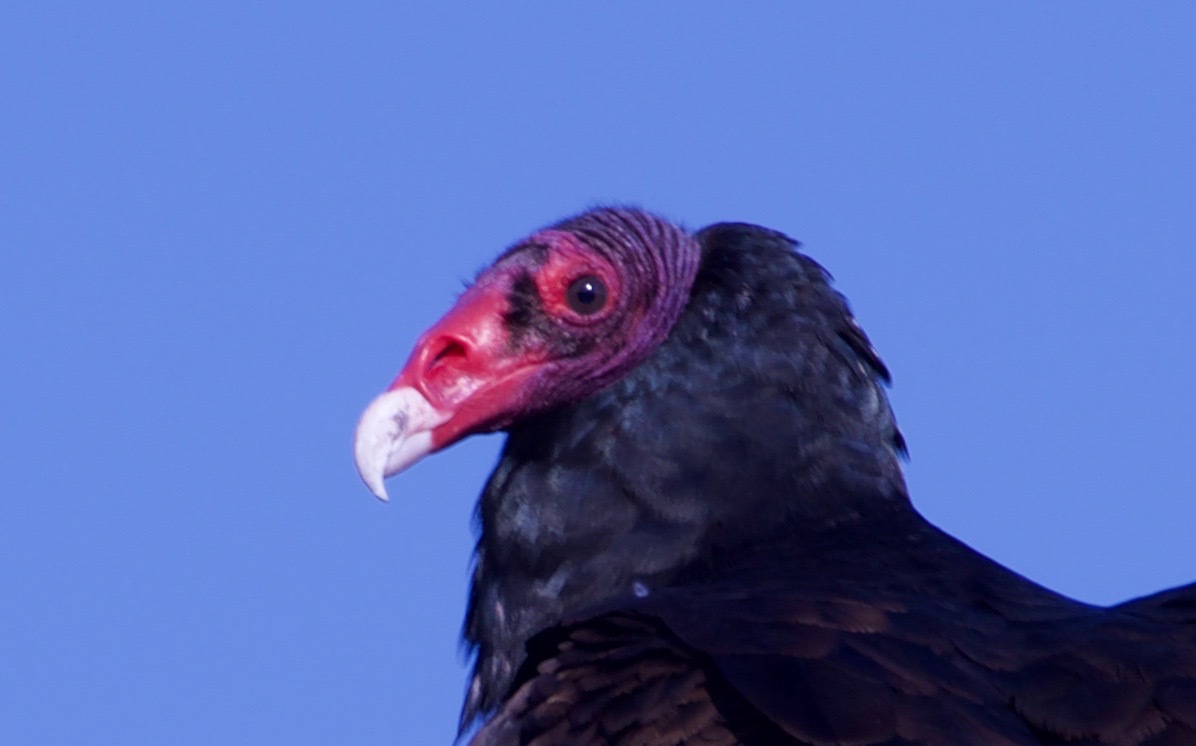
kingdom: Animalia
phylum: Chordata
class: Aves
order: Accipitriformes
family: Cathartidae
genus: Cathartes
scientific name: Cathartes aura
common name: Turkey vulture
